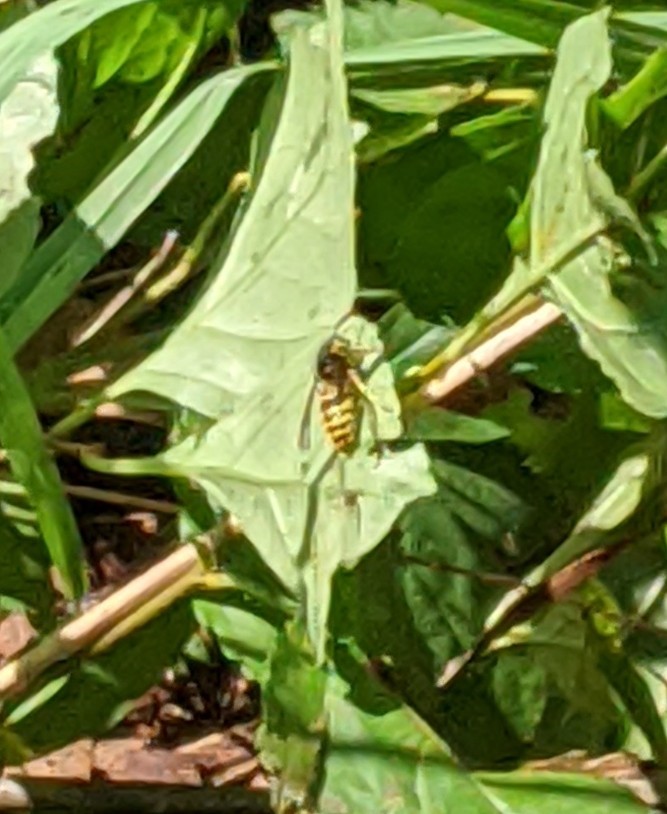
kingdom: Animalia
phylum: Arthropoda
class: Insecta
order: Hymenoptera
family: Vespidae
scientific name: Vespidae
